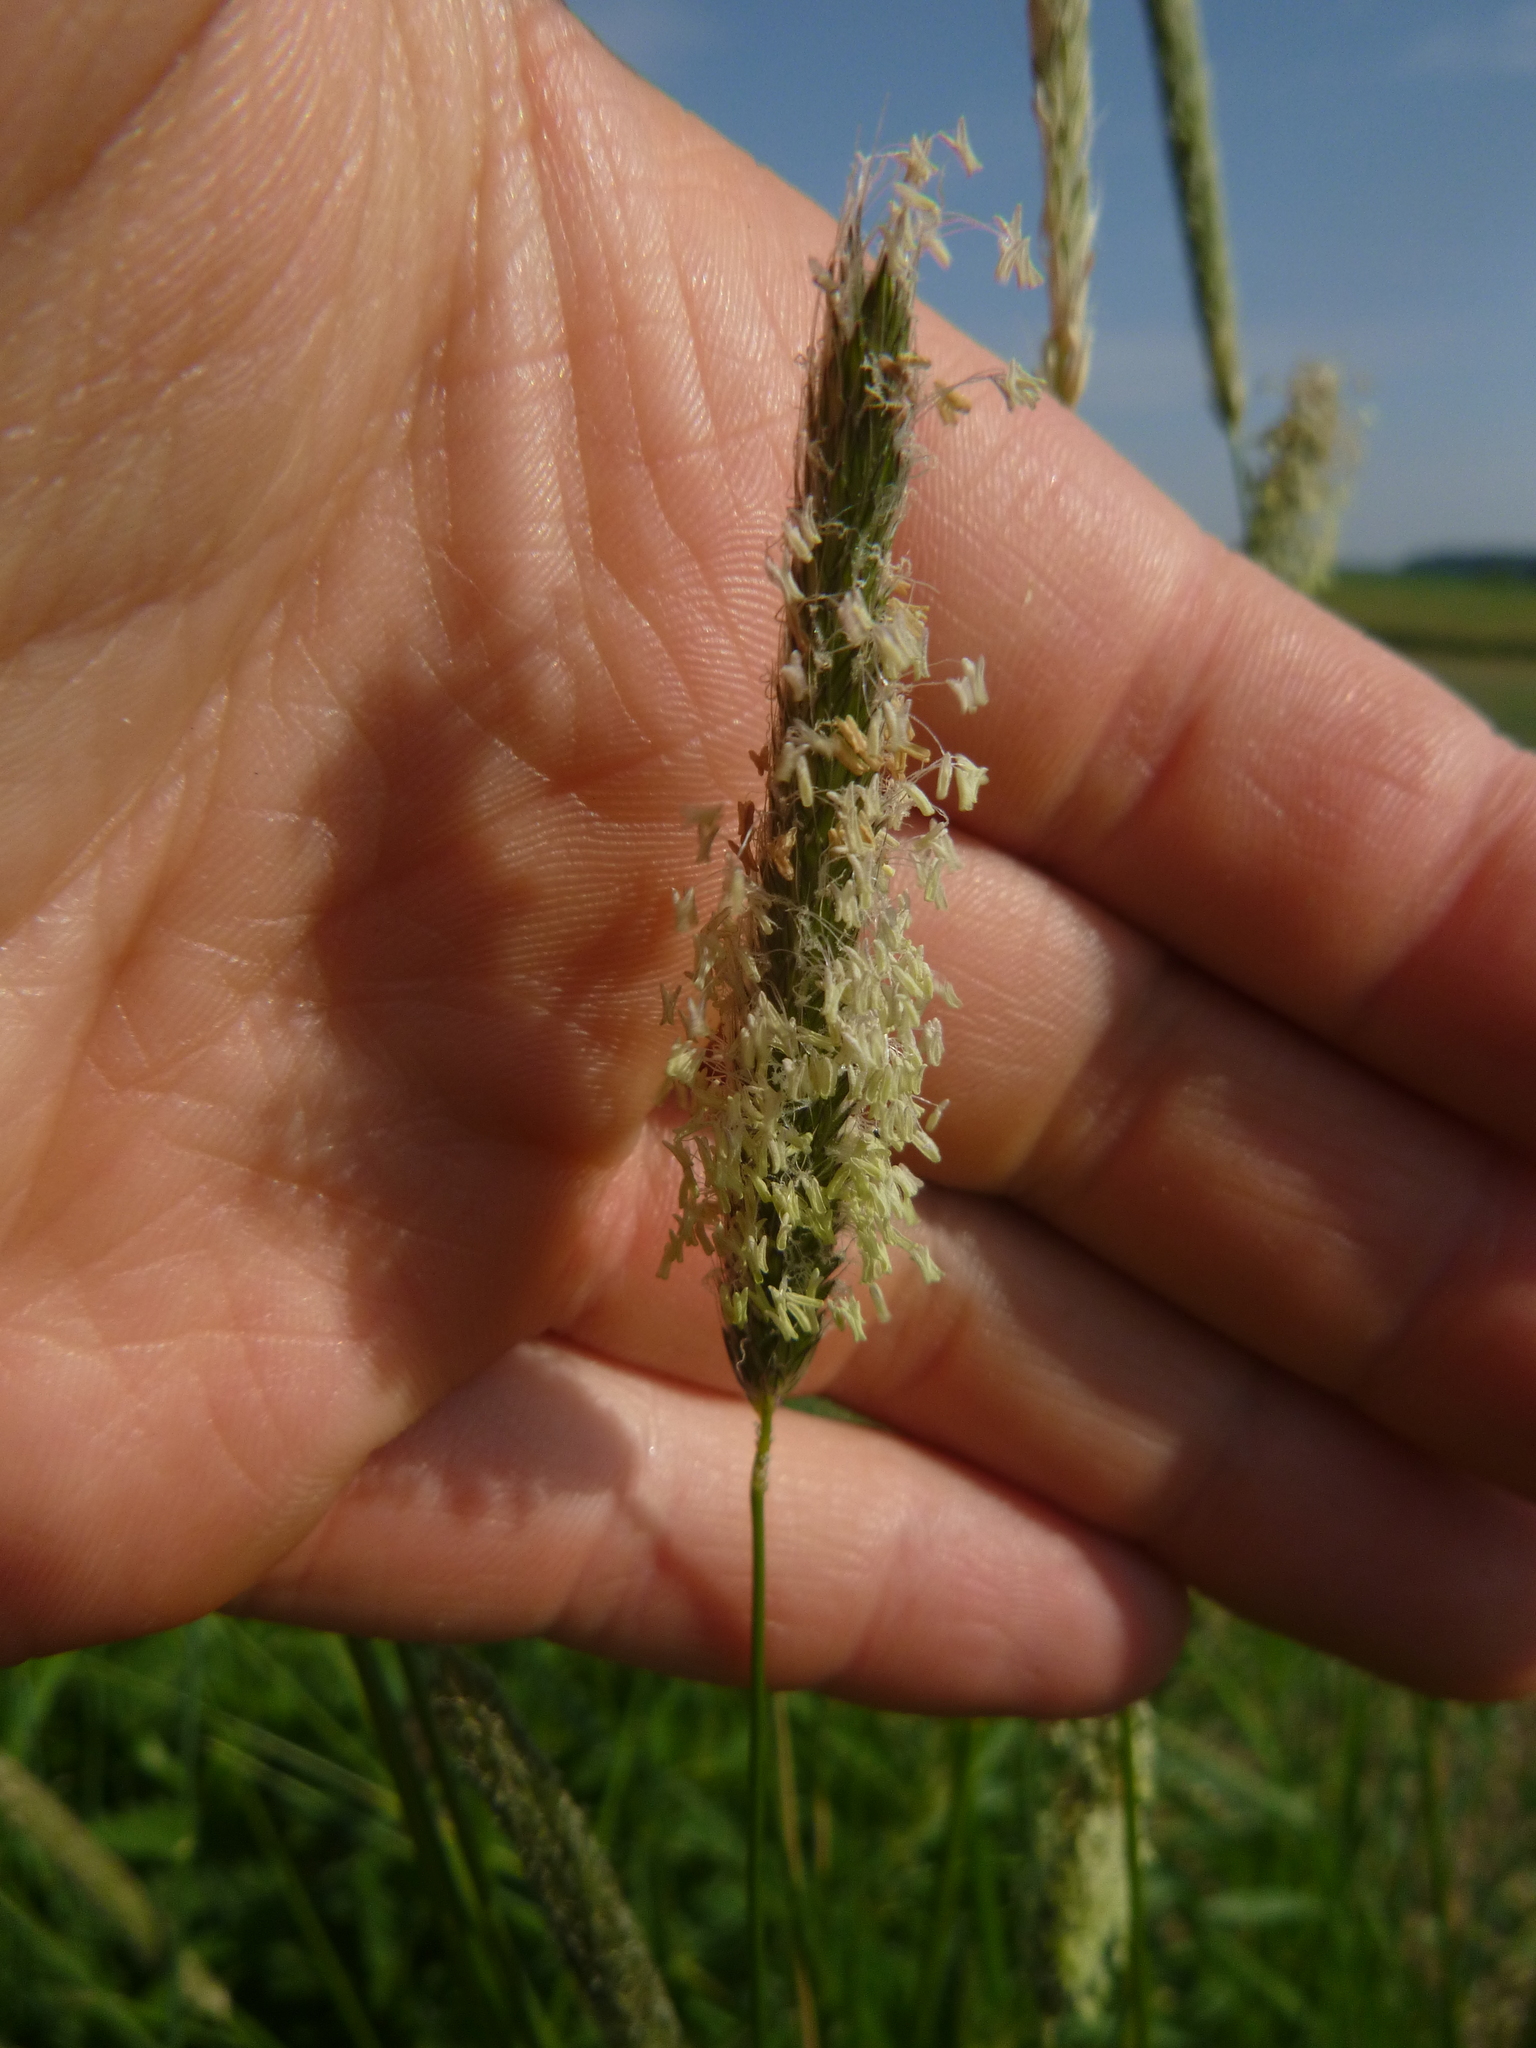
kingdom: Plantae
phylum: Tracheophyta
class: Liliopsida
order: Poales
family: Poaceae
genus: Alopecurus
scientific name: Alopecurus pratensis
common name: Meadow foxtail
